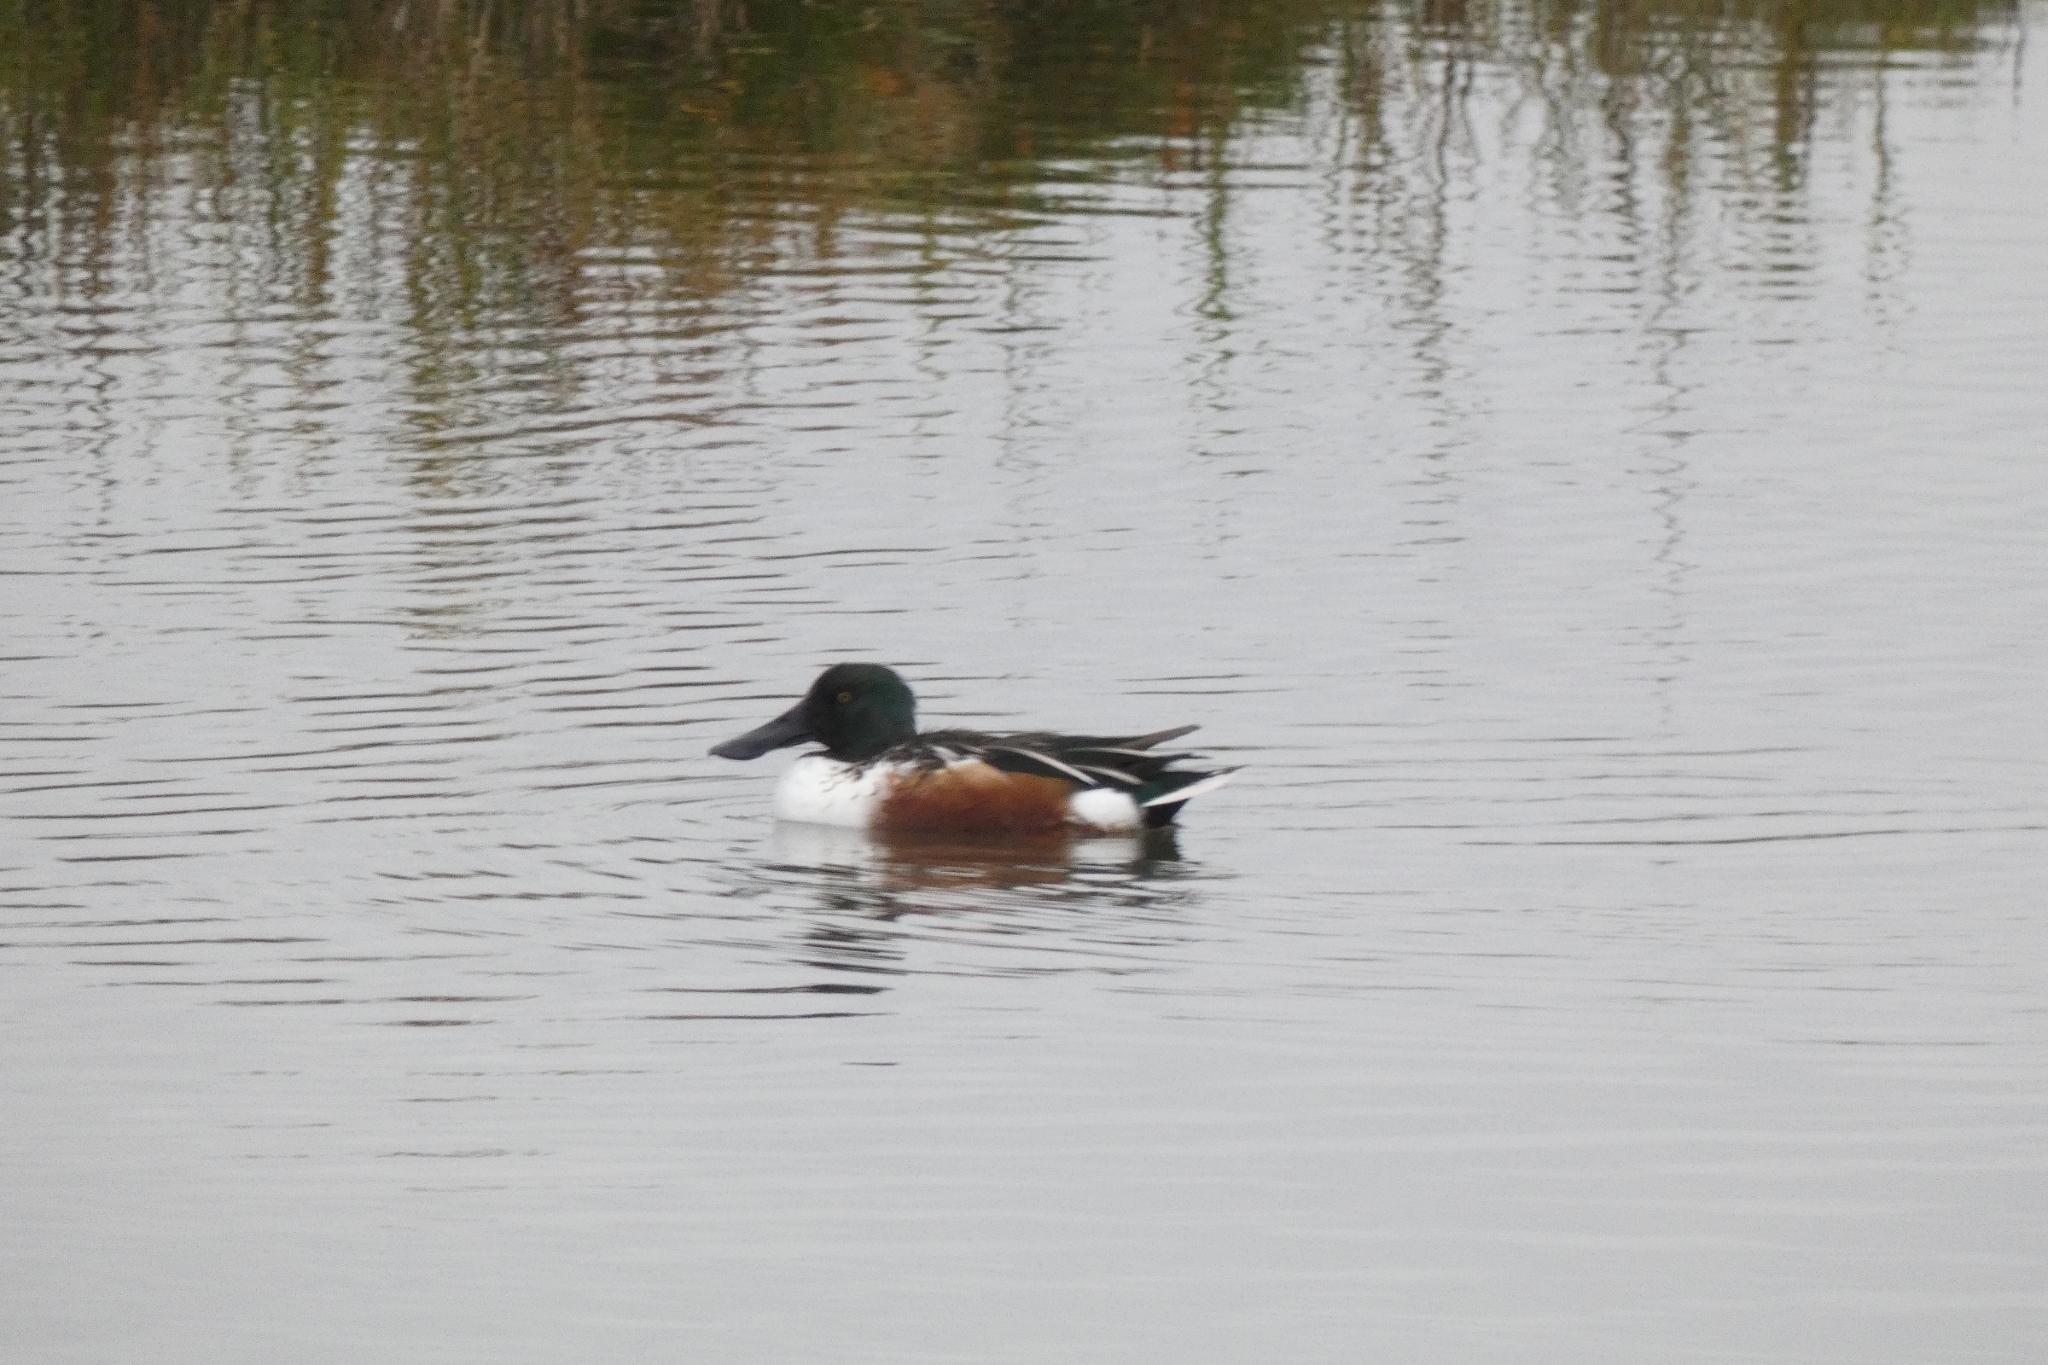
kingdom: Animalia
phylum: Chordata
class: Aves
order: Anseriformes
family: Anatidae
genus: Spatula
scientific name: Spatula clypeata
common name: Northern shoveler
